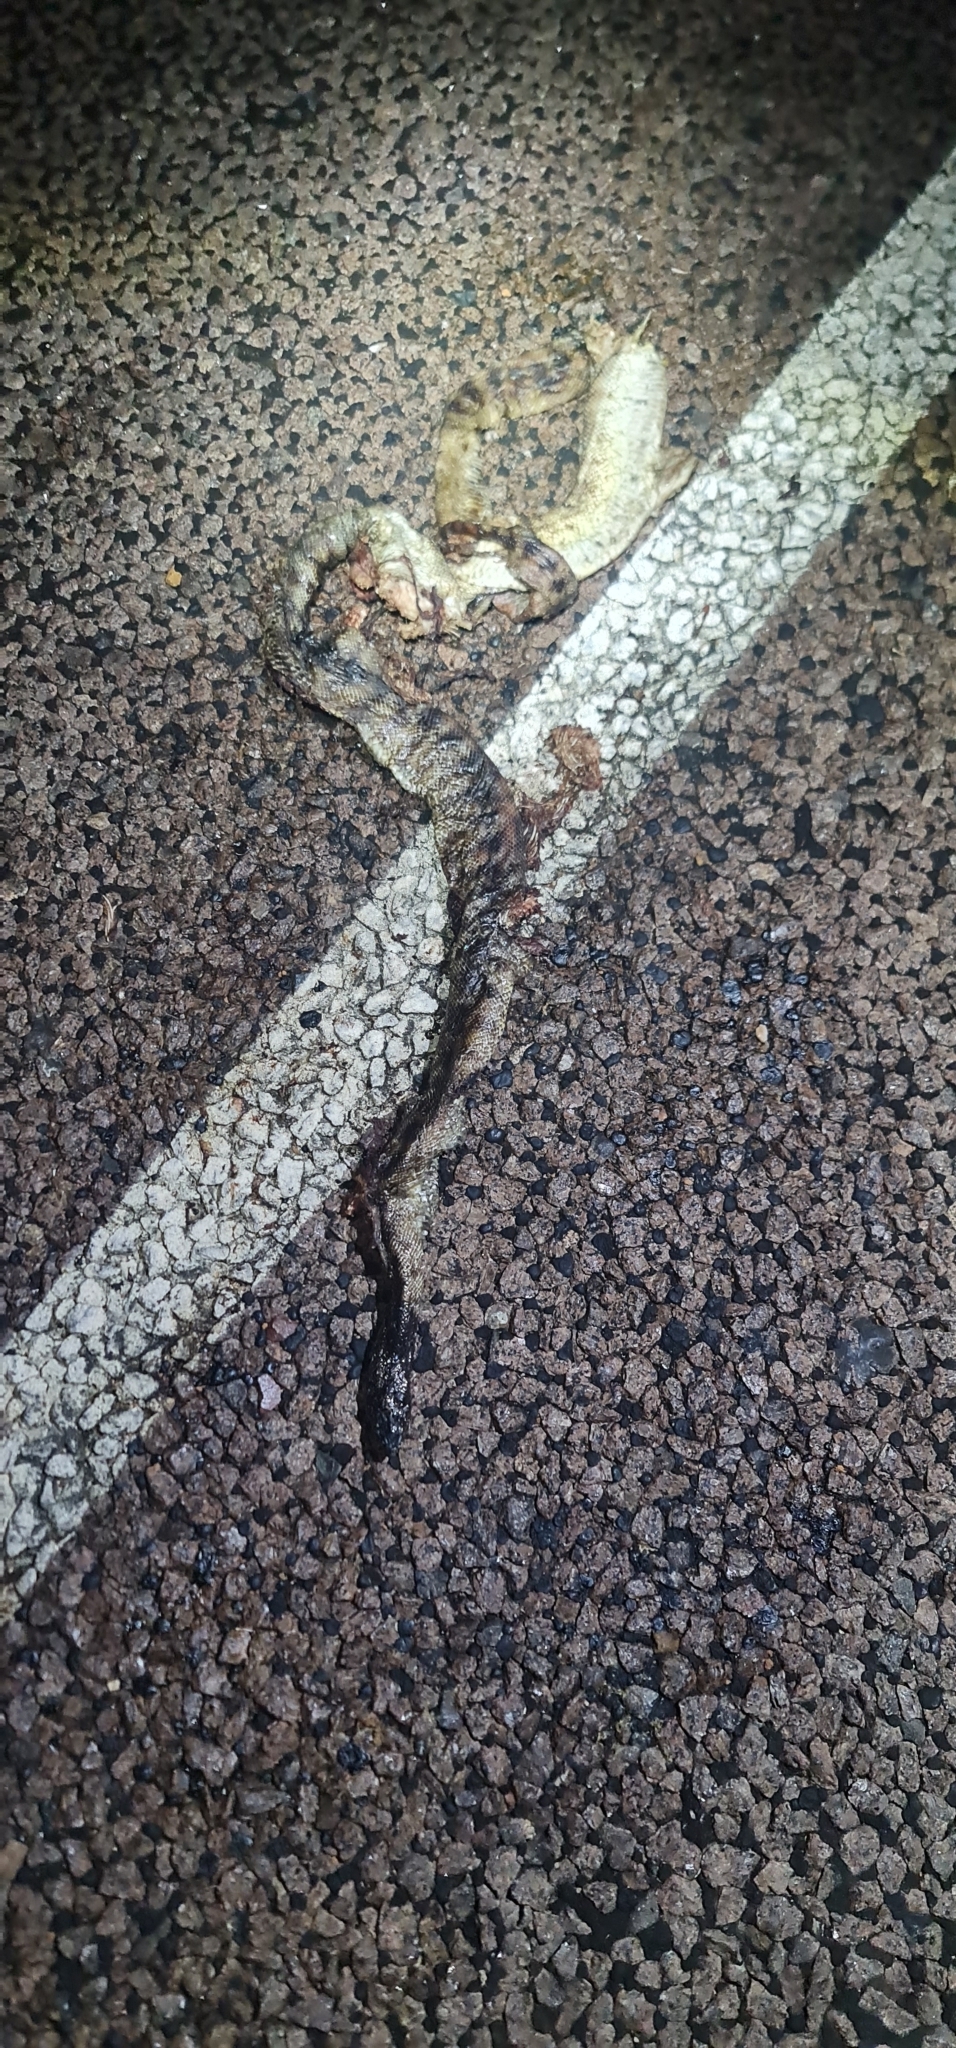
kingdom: Animalia
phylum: Chordata
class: Squamata
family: Pythonidae
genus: Aspidites
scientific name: Aspidites melanocephalus
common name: Black-headed python
